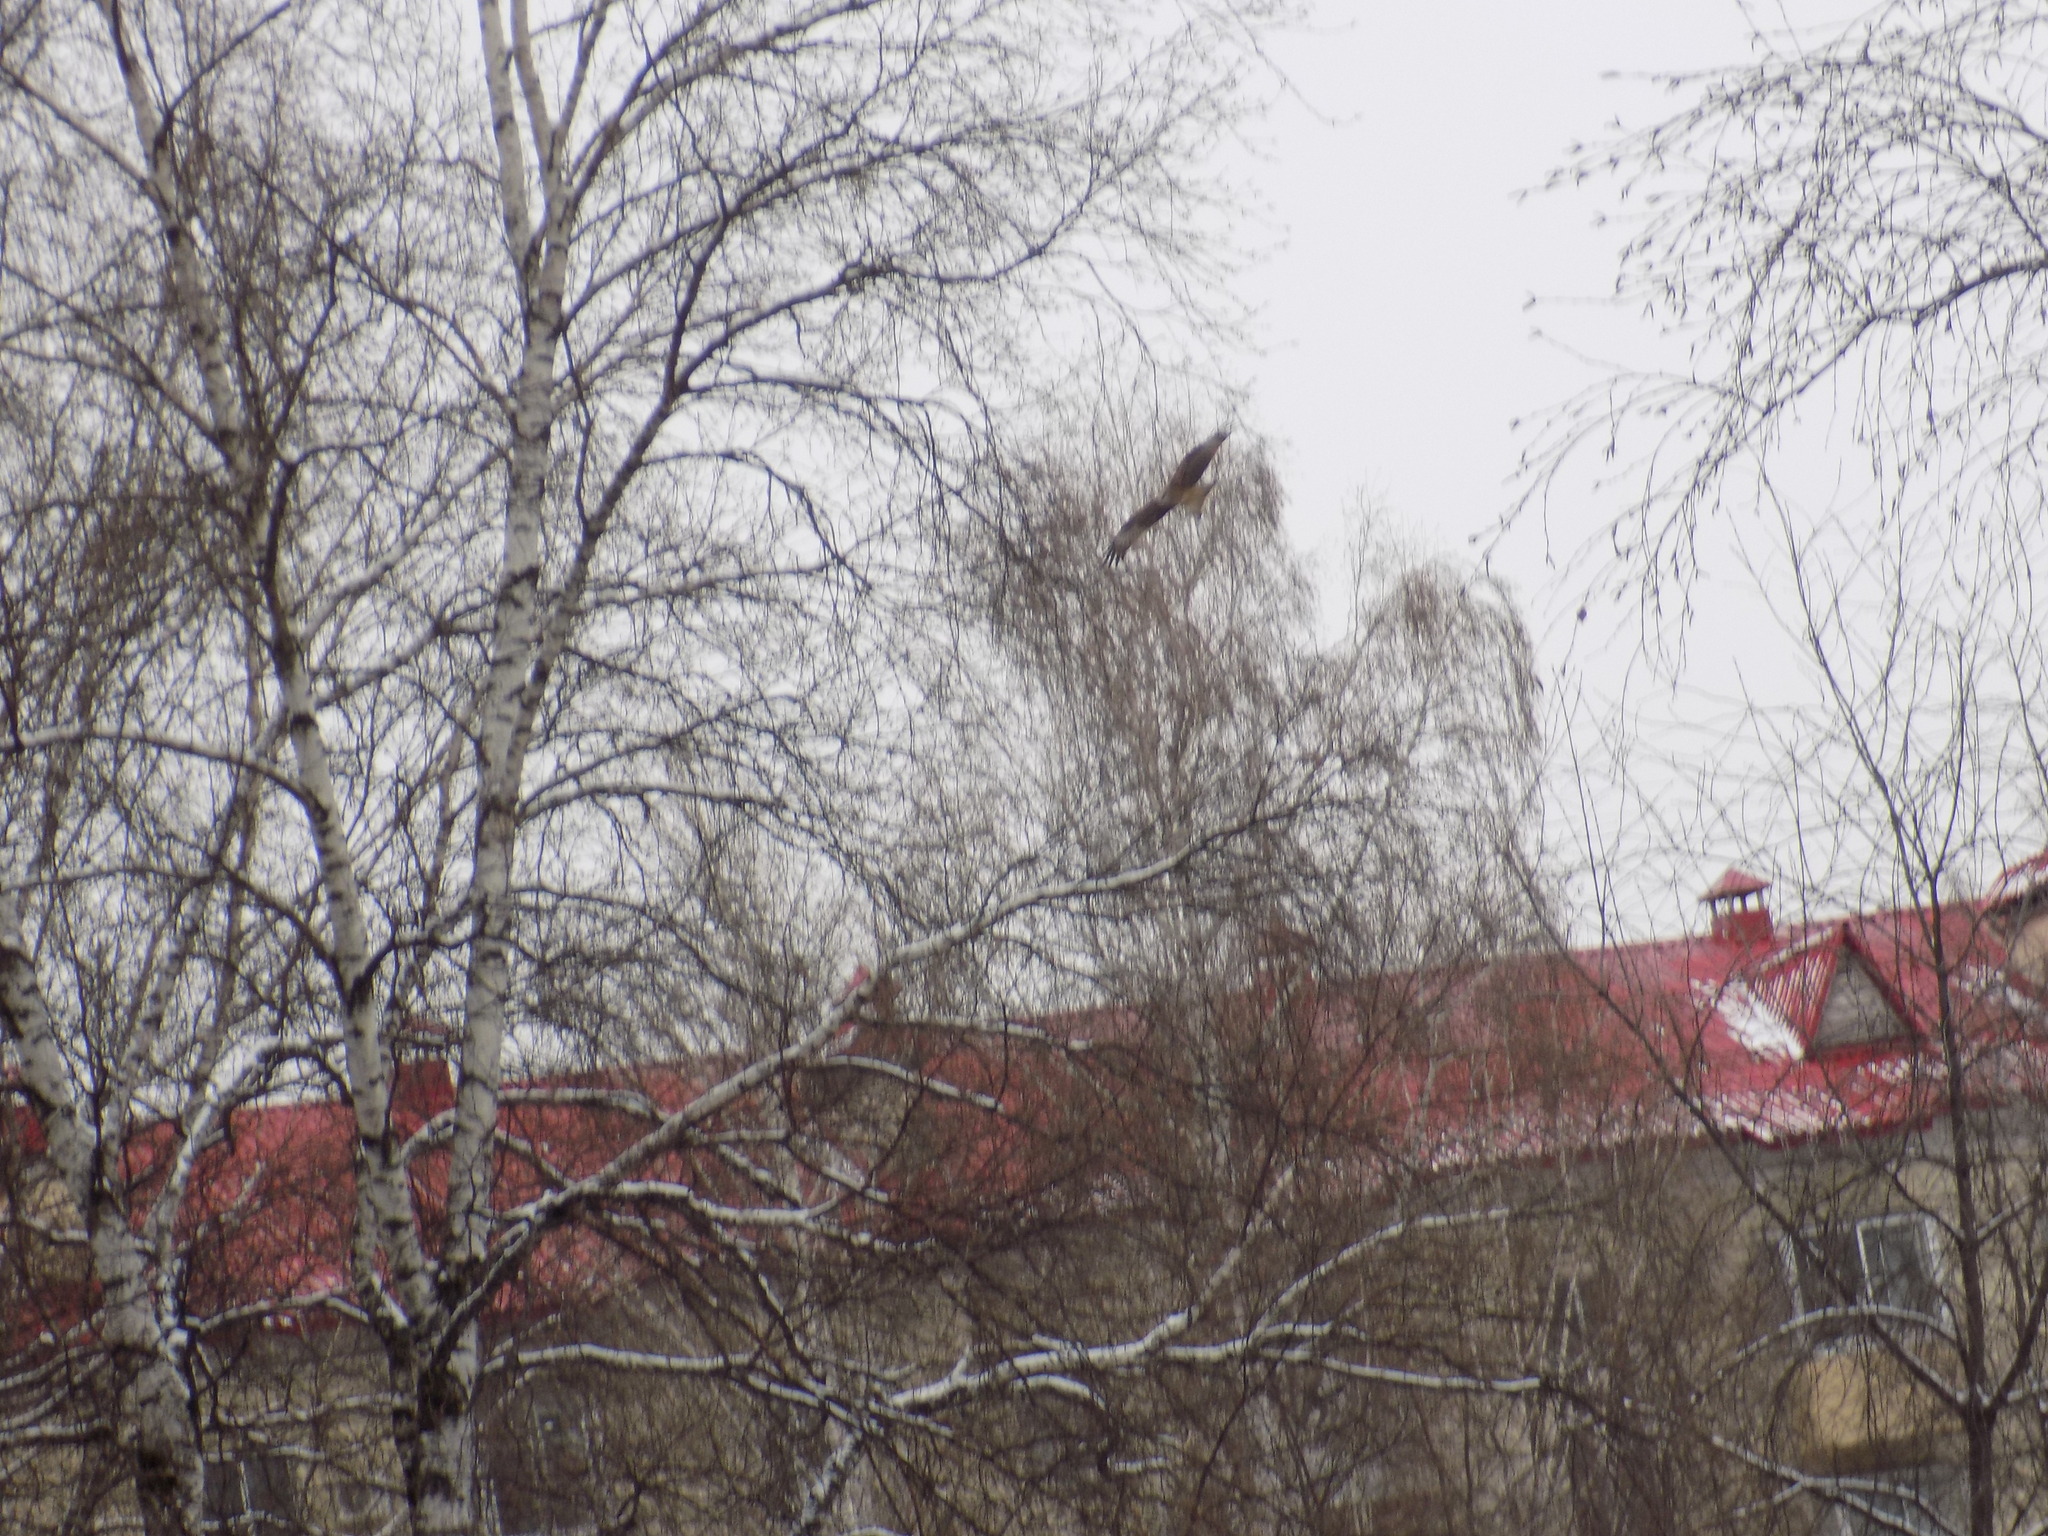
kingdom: Animalia
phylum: Chordata
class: Aves
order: Accipitriformes
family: Accipitridae
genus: Milvus
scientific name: Milvus migrans
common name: Black kite
